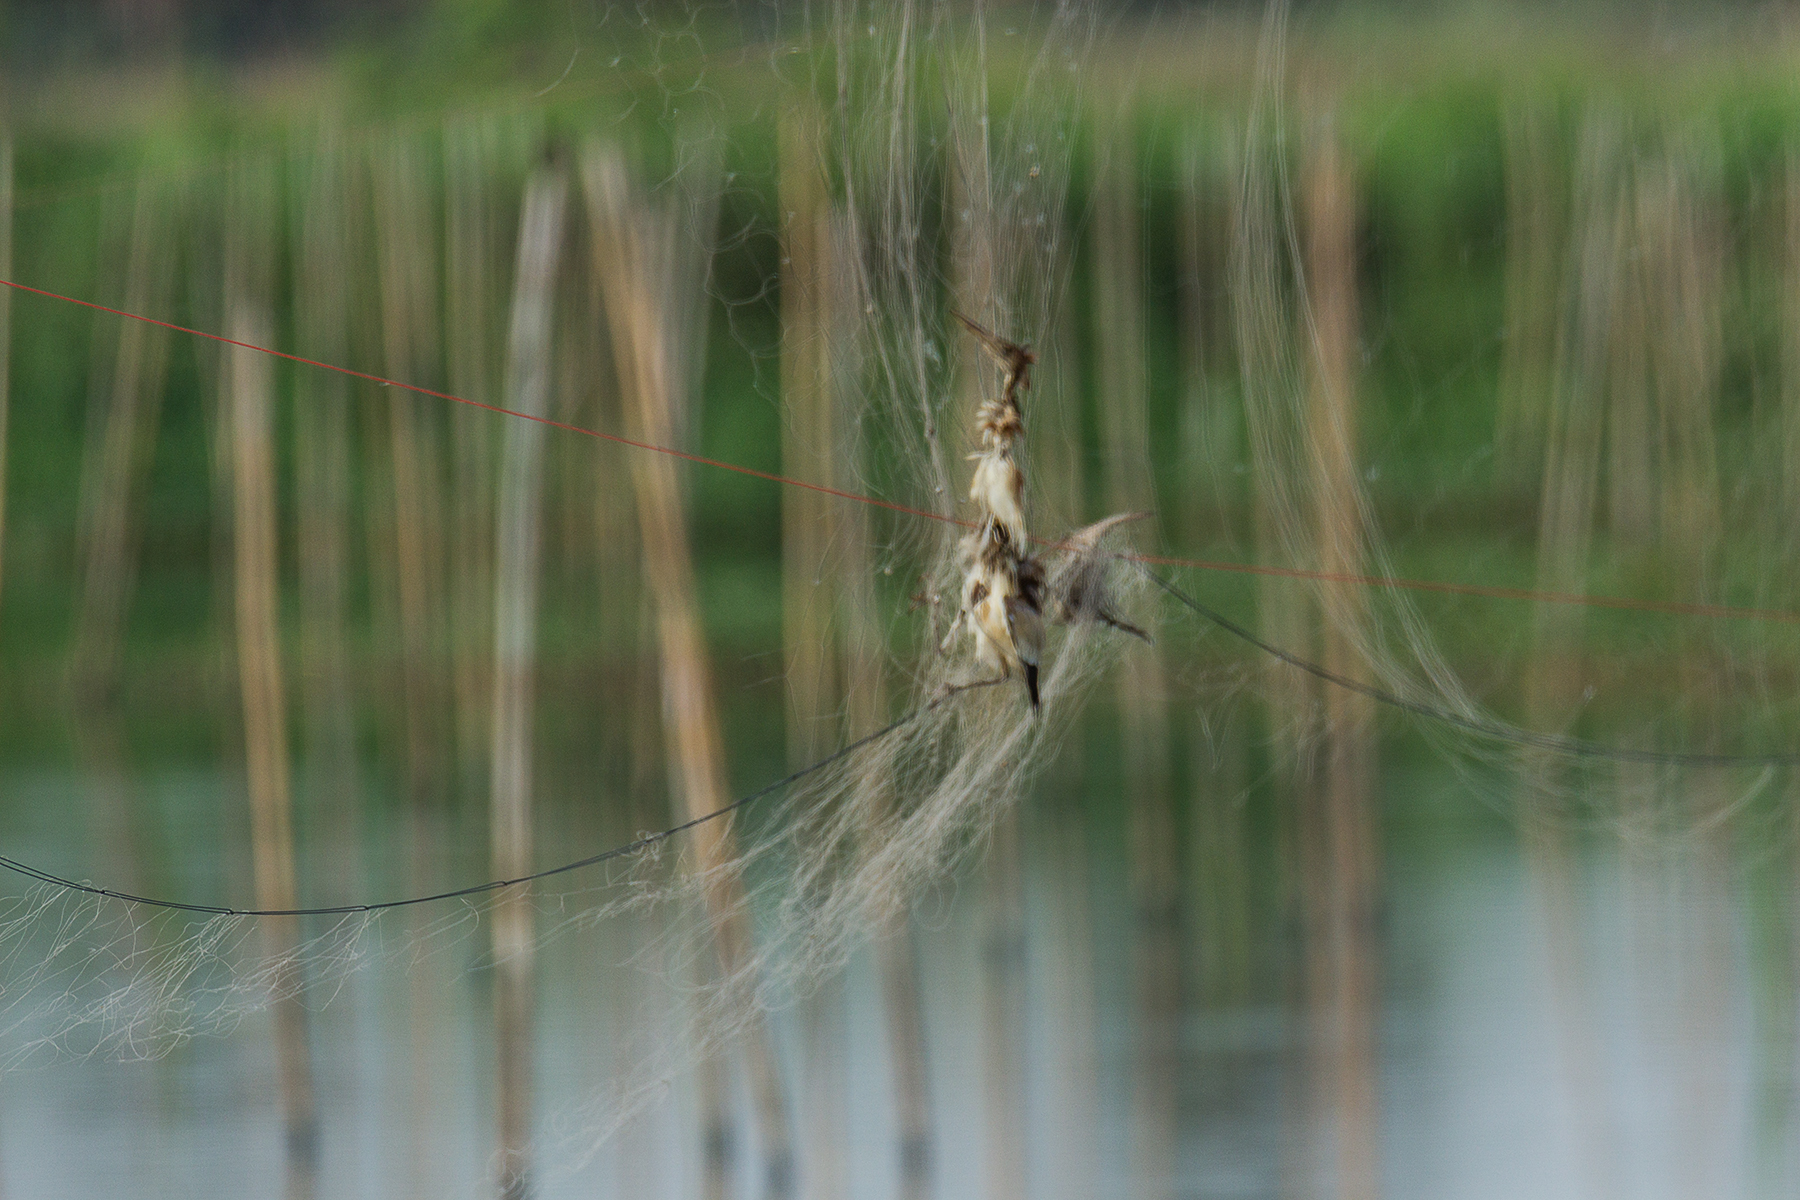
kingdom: Animalia
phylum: Chordata
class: Aves
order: Pelecaniformes
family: Ardeidae
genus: Ixobrychus
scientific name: Ixobrychus sinensis
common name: Yellow bittern
